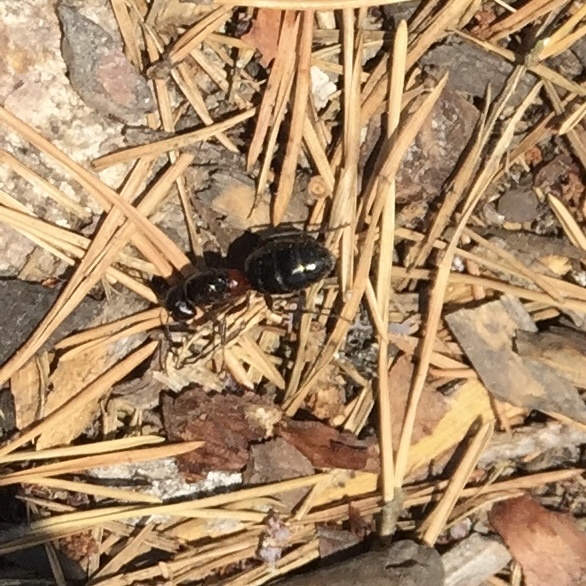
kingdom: Animalia
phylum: Arthropoda
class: Insecta
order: Hymenoptera
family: Formicidae
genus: Camponotus
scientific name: Camponotus ligniperdus
